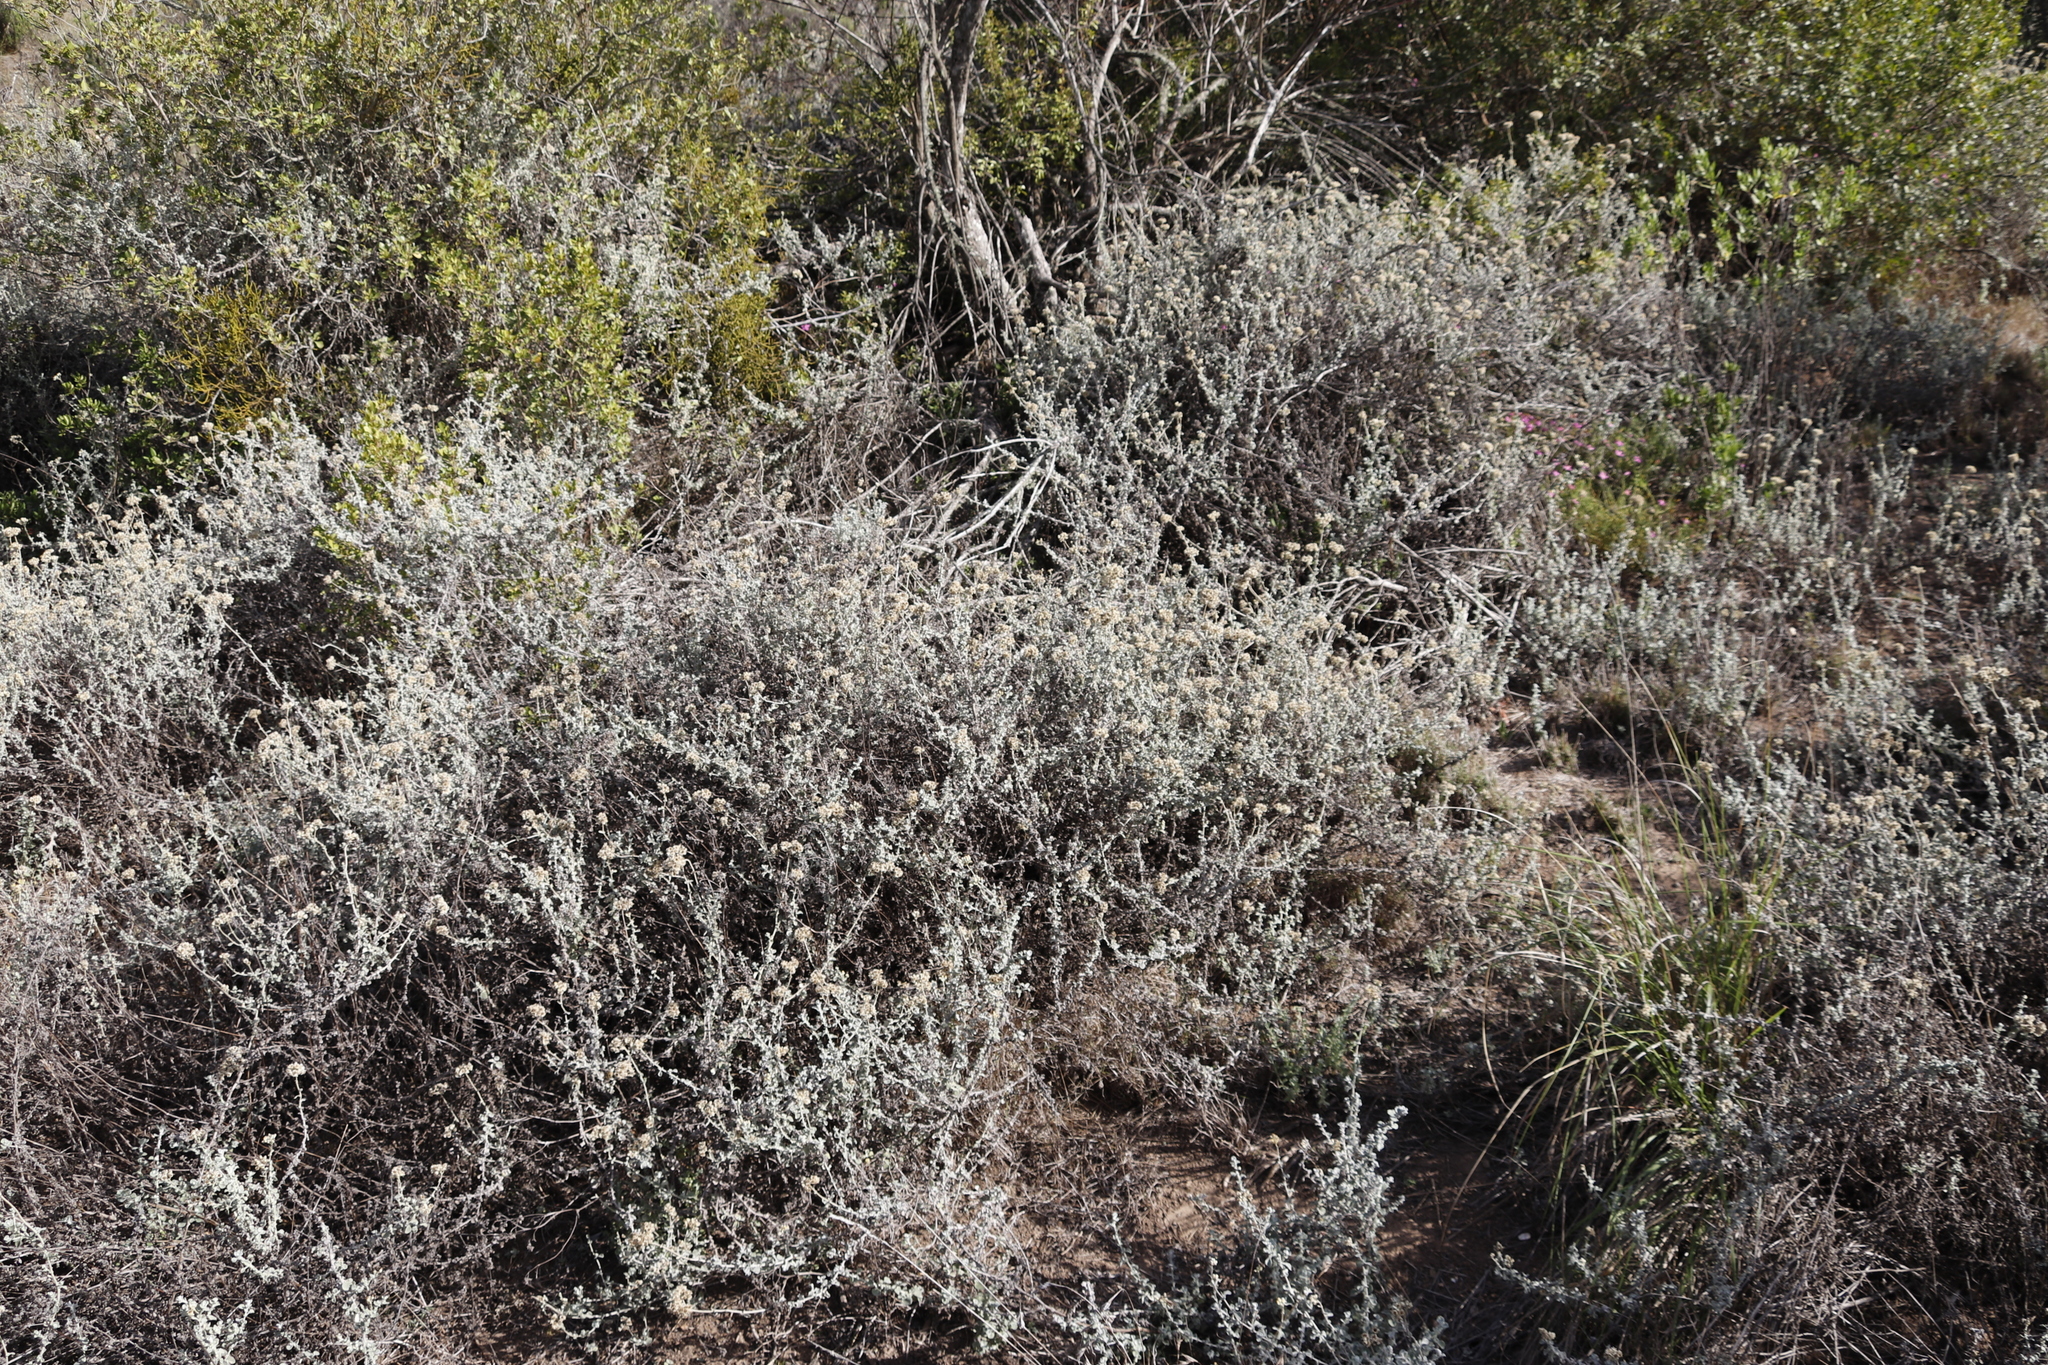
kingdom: Plantae
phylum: Tracheophyta
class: Magnoliopsida
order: Asterales
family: Asteraceae
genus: Helichrysum
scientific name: Helichrysum patulum
